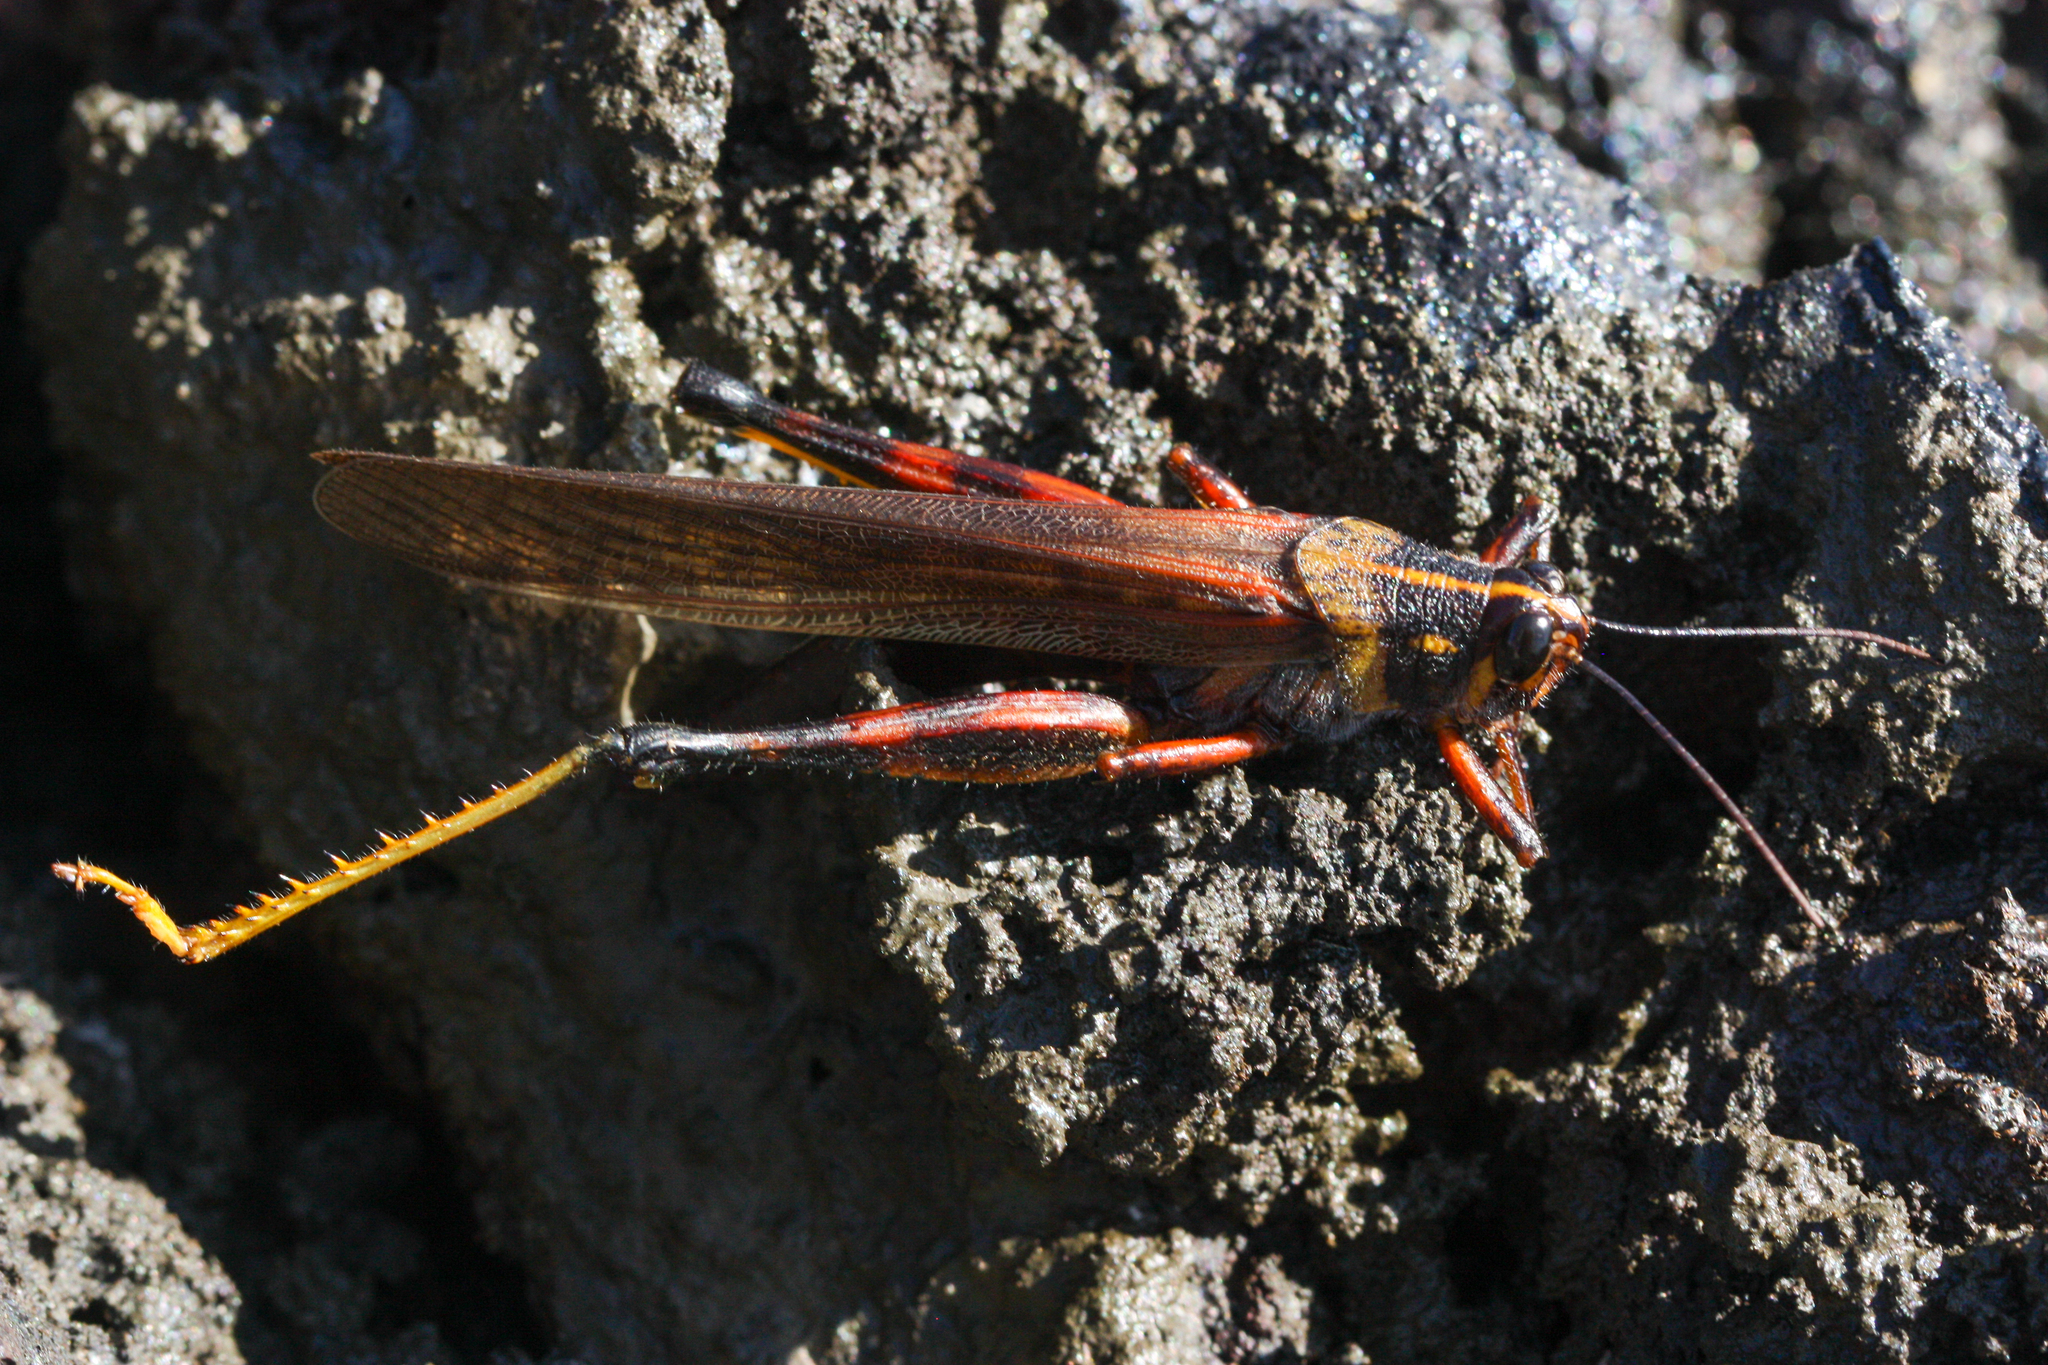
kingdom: Animalia
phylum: Arthropoda
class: Insecta
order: Orthoptera
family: Acrididae
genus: Schistocerca
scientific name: Schistocerca melanocera
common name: Large painted locust
